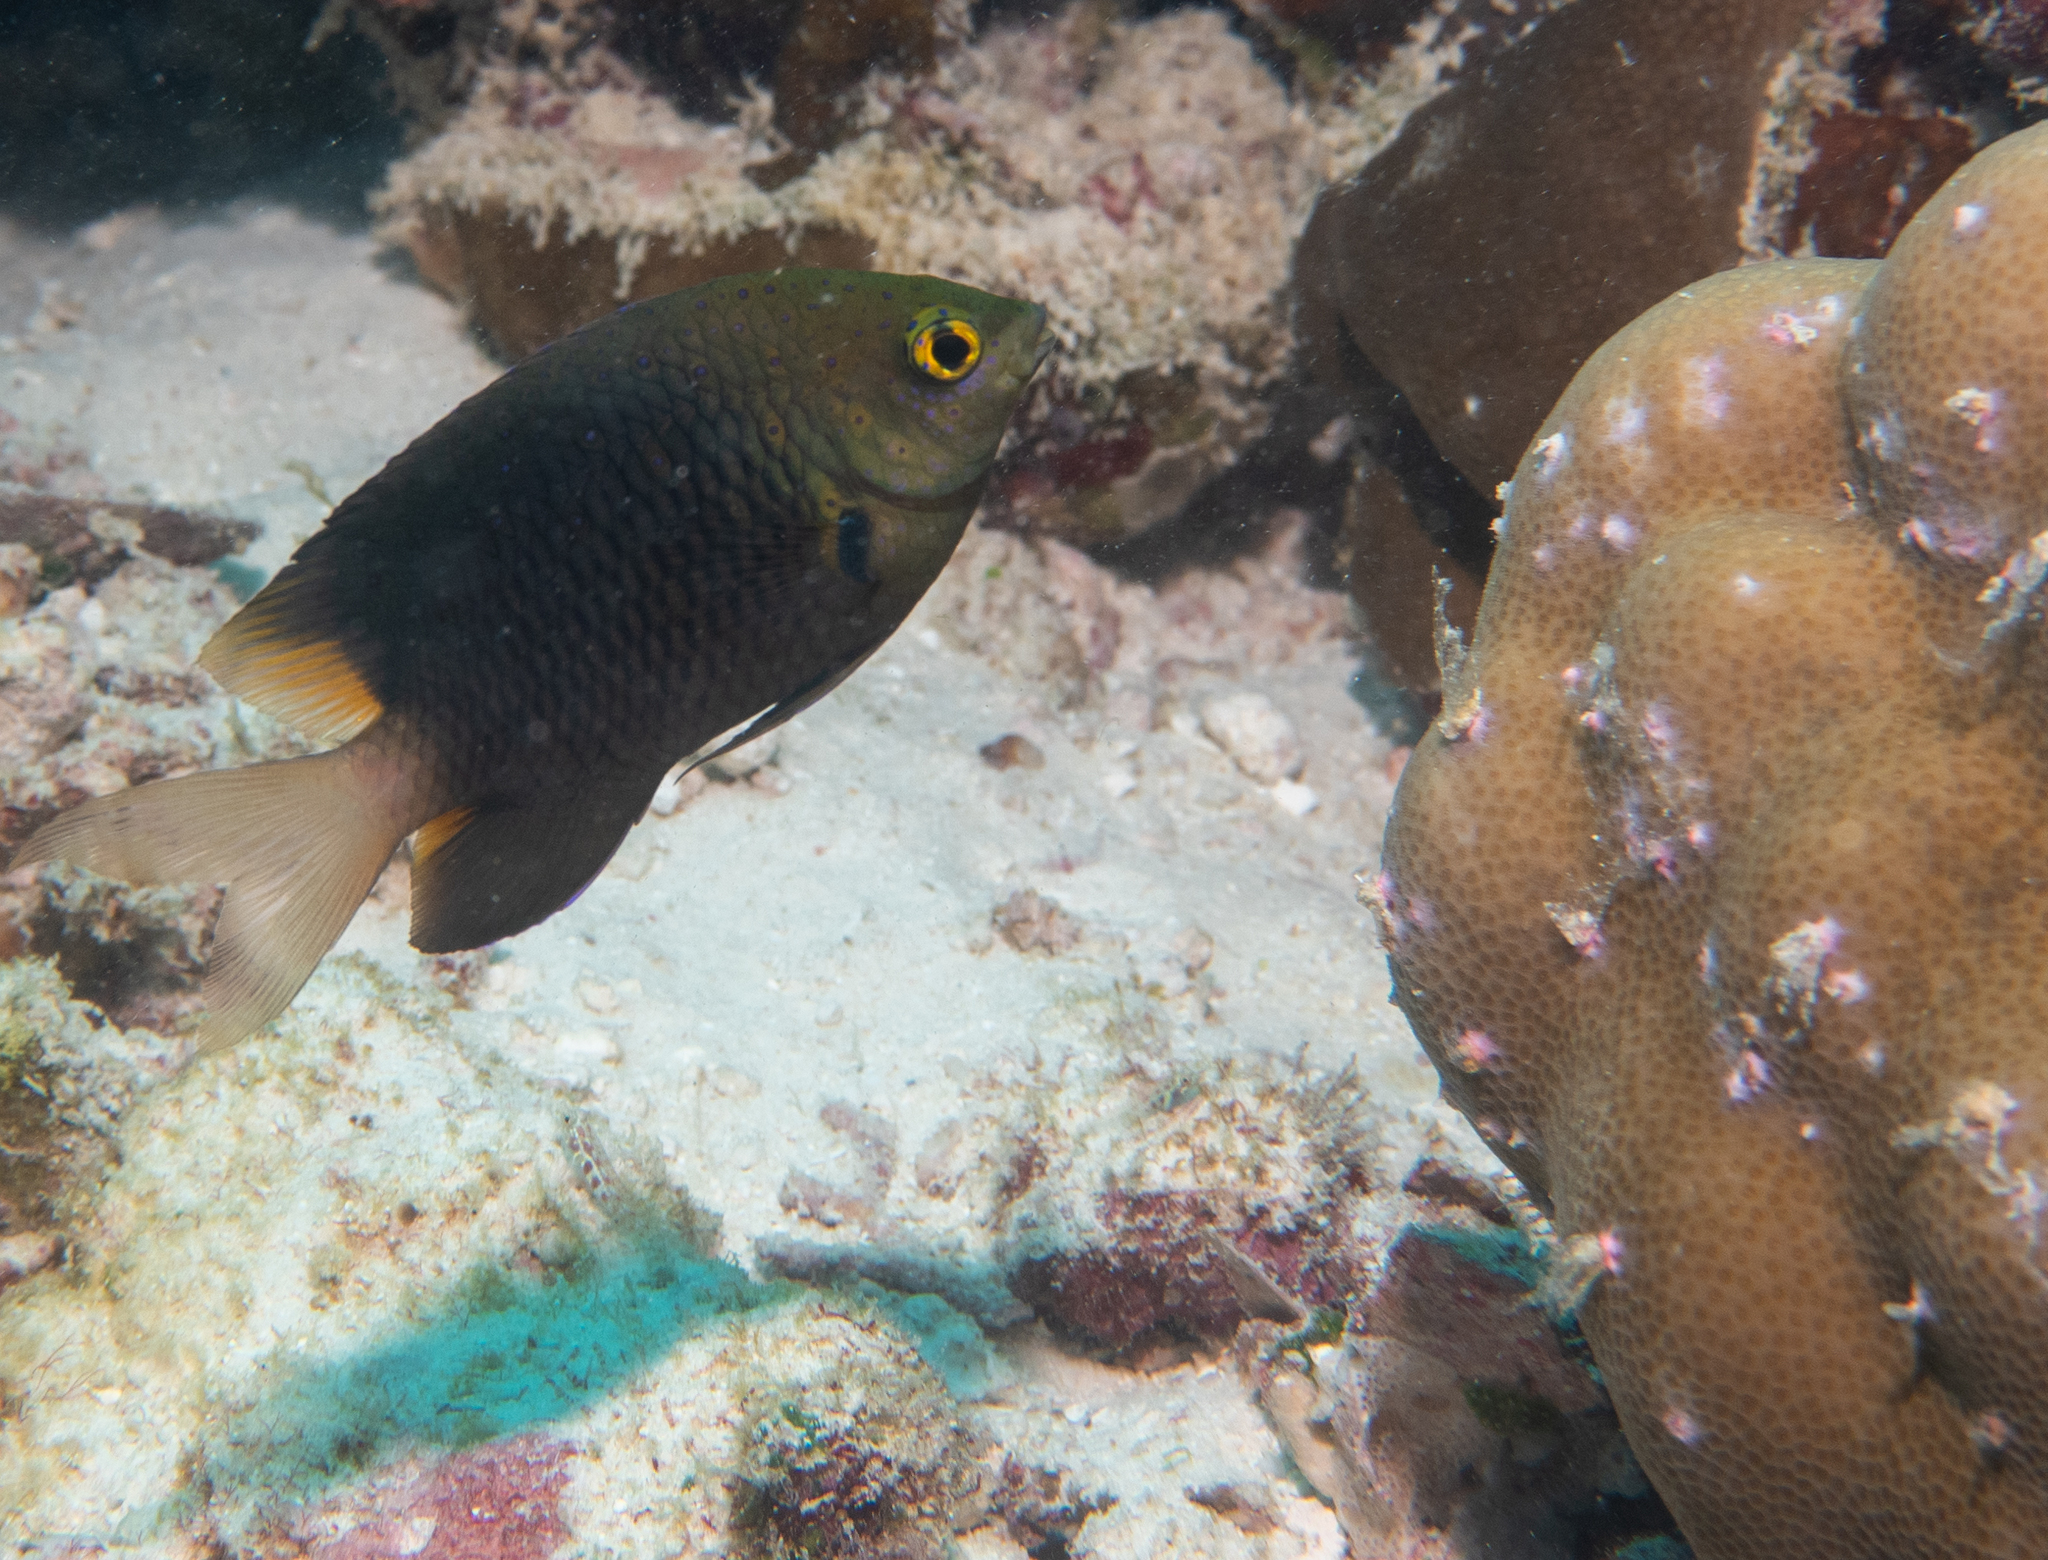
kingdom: Animalia
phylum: Chordata
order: Perciformes
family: Pomacentridae
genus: Plectroglyphidodon
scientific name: Plectroglyphidodon lacrymatus
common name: Jewel damsel
